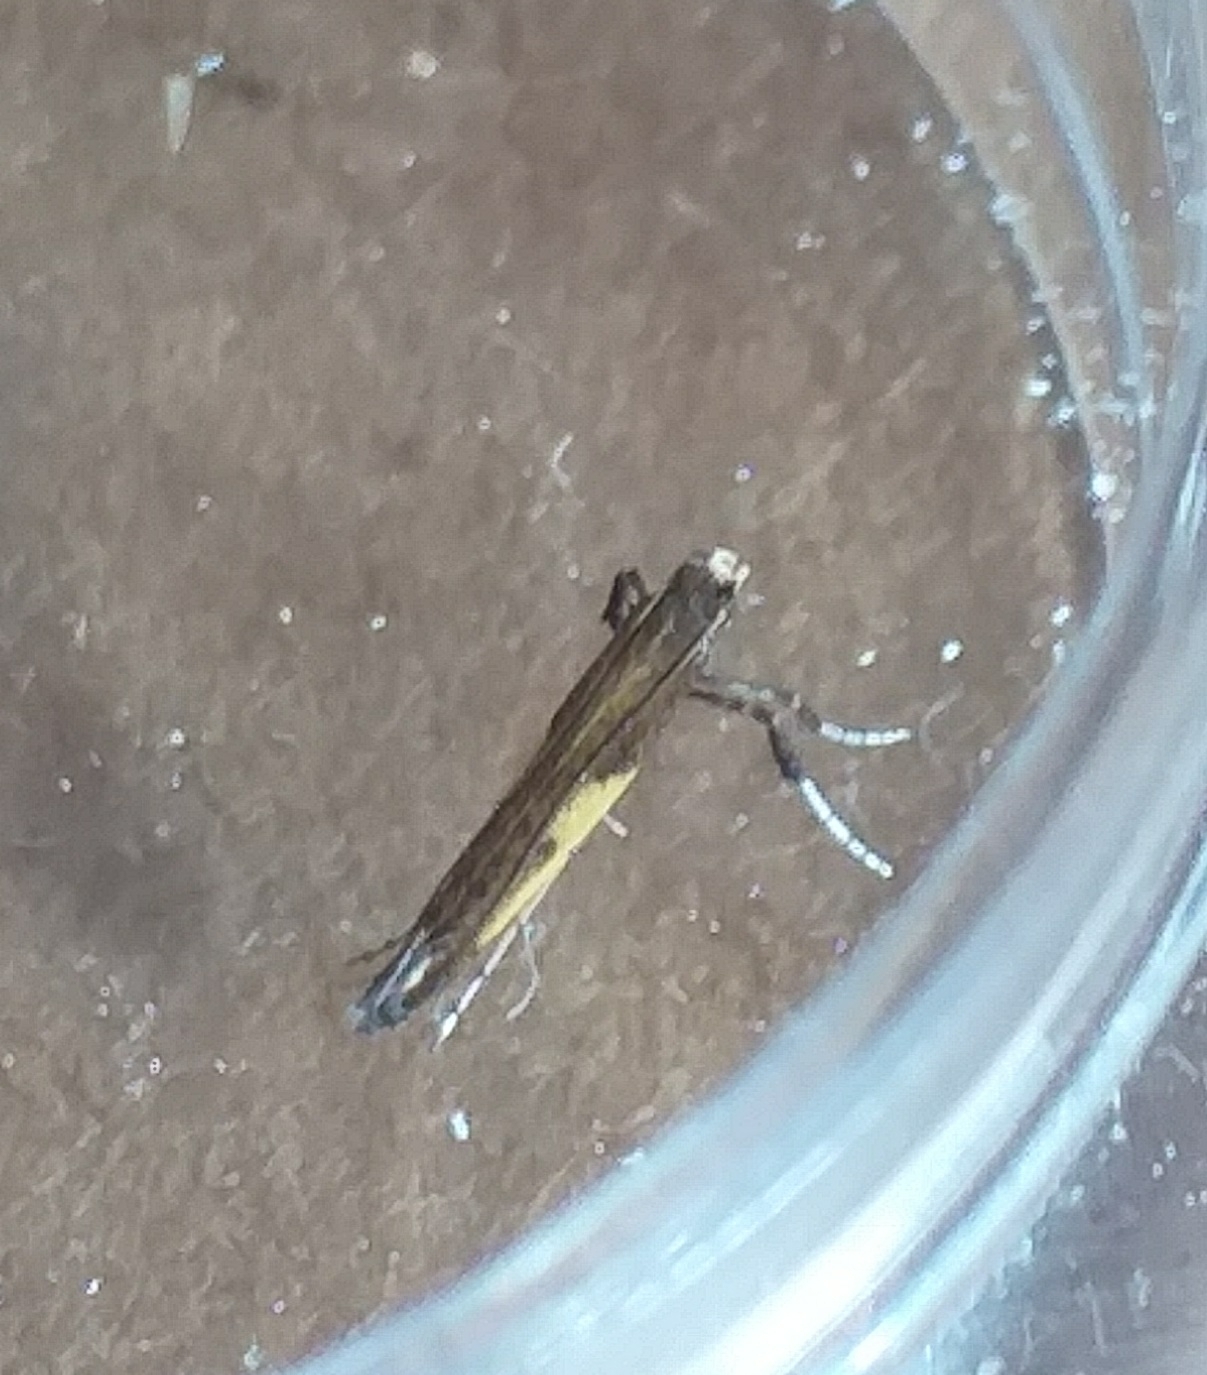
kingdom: Animalia
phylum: Arthropoda
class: Insecta
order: Lepidoptera
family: Gracillariidae
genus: Caloptilia
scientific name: Caloptilia azaleella
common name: Azalea leafminer
